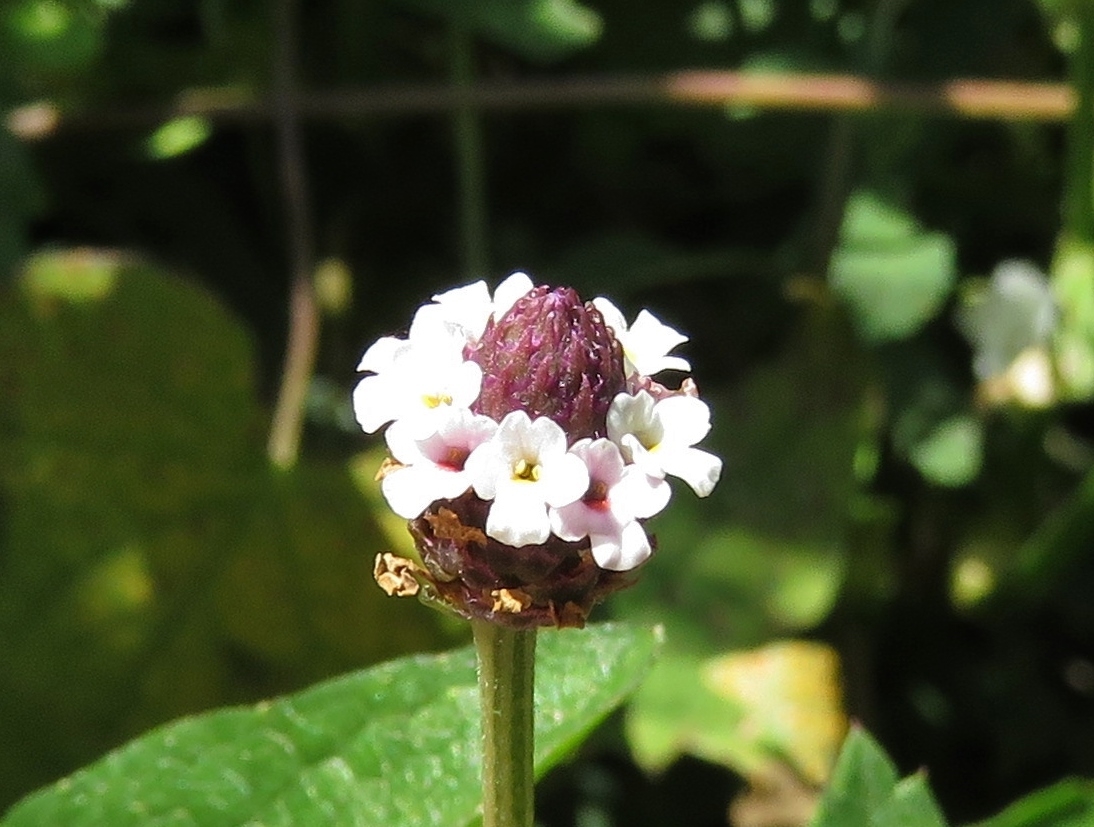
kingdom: Plantae
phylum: Tracheophyta
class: Magnoliopsida
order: Lamiales
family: Verbenaceae
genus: Phyla
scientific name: Phyla nodiflora
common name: Frogfruit
